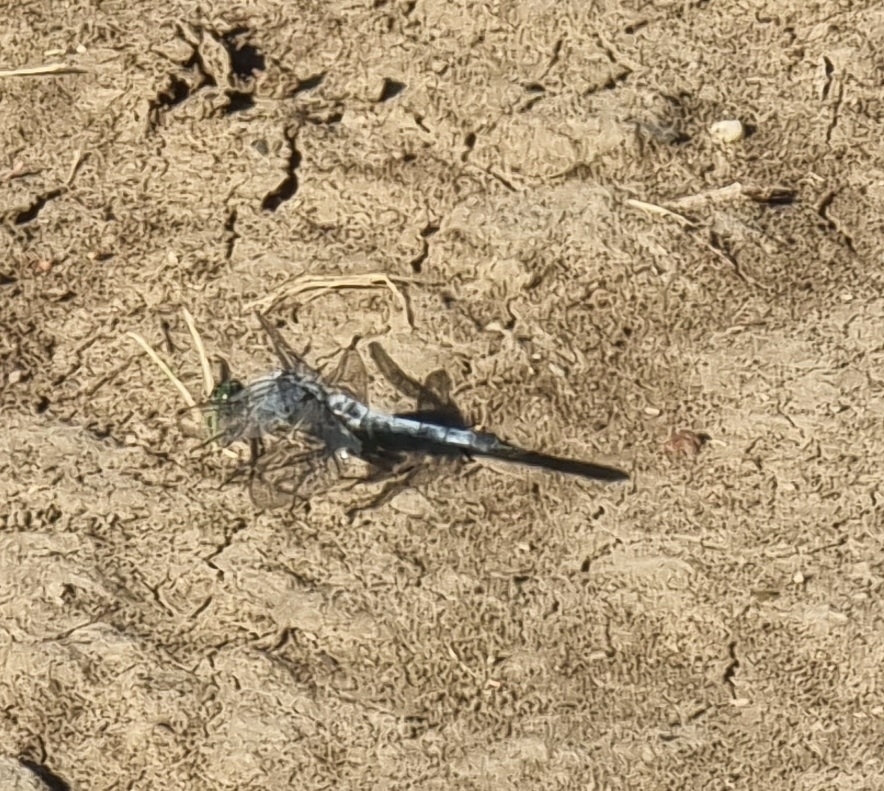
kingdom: Animalia
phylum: Arthropoda
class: Insecta
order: Odonata
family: Libellulidae
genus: Orthetrum
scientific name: Orthetrum cancellatum
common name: Black-tailed skimmer
